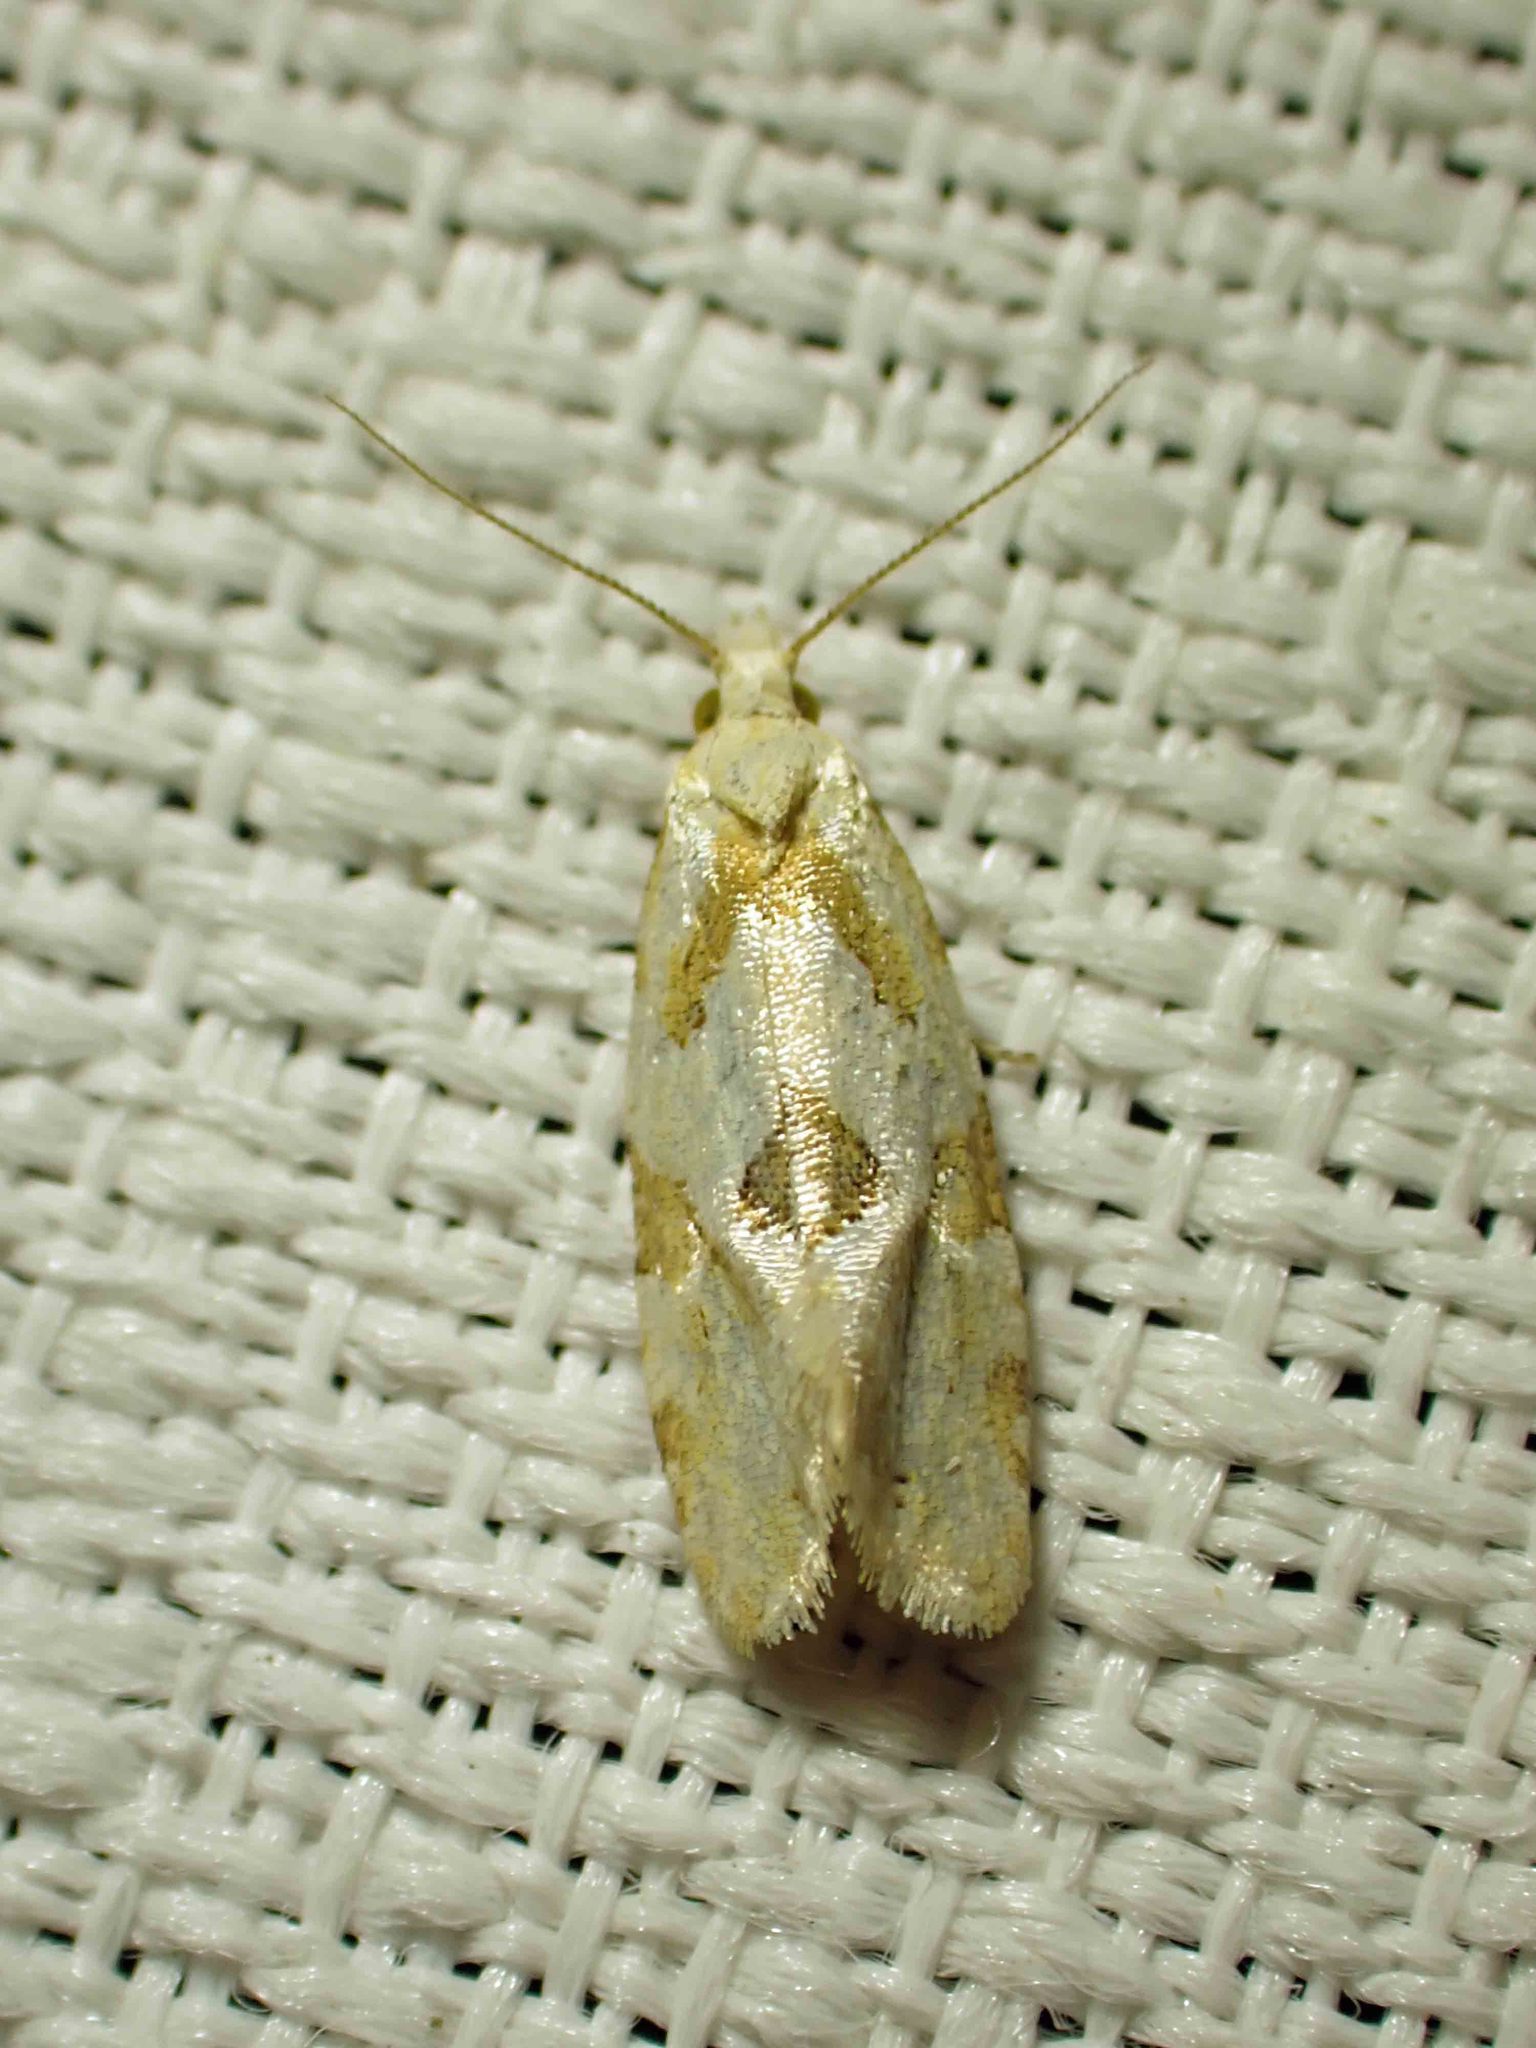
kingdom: Animalia
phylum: Arthropoda
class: Insecta
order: Lepidoptera
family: Tortricidae
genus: Aethes
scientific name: Aethes promptana
